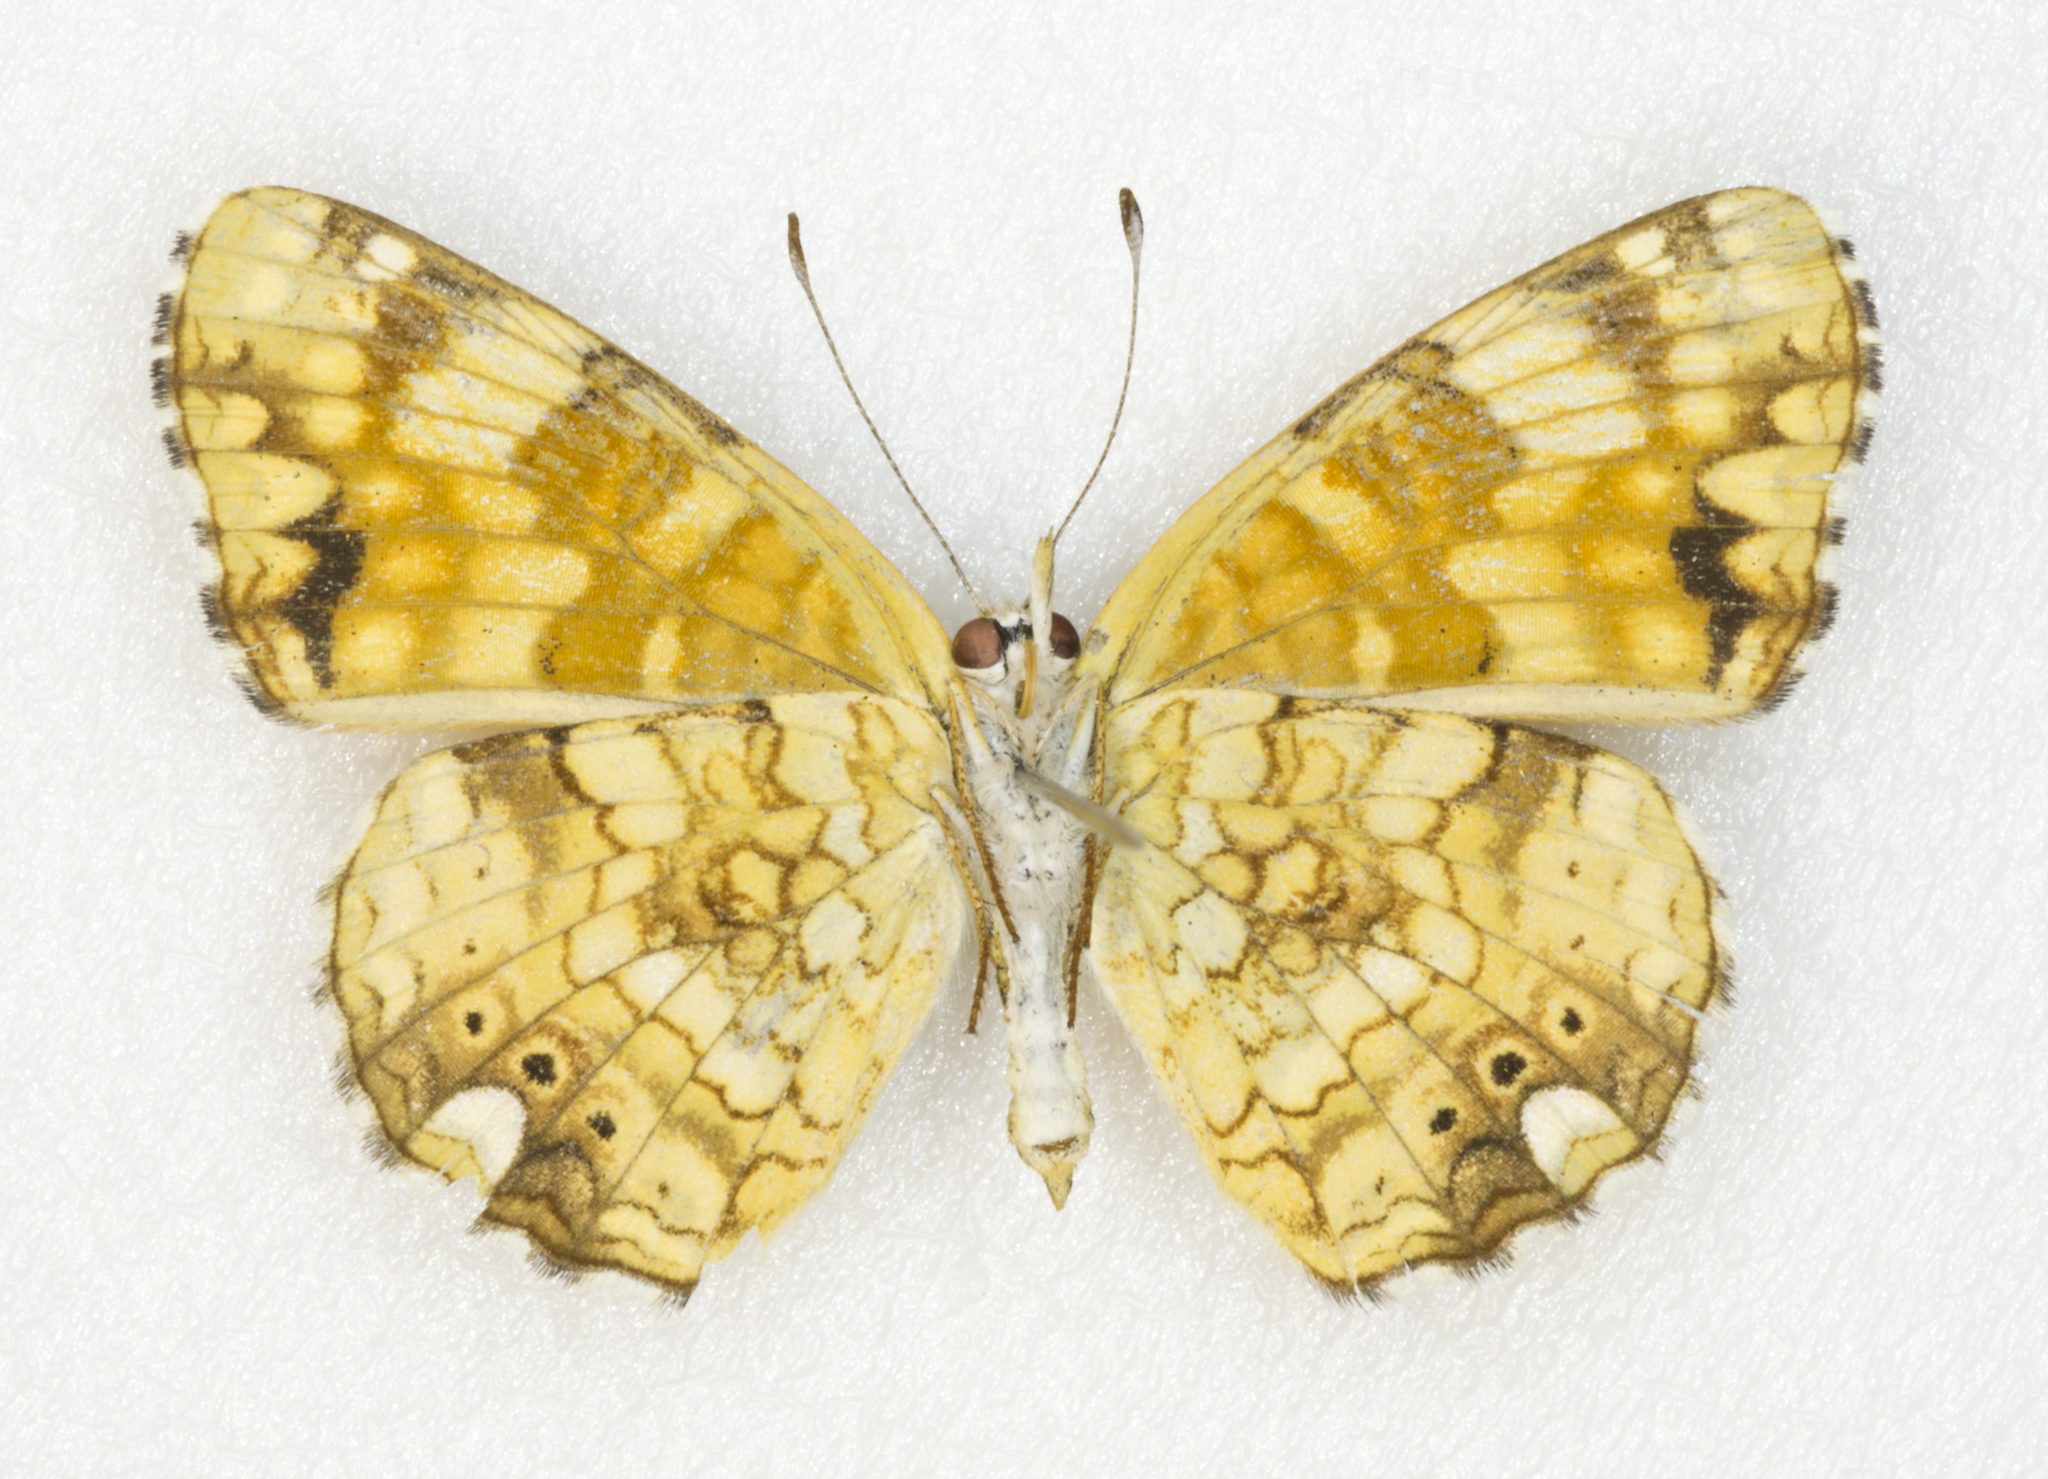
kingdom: Animalia
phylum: Arthropoda
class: Insecta
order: Lepidoptera
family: Nymphalidae
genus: Eresia
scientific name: Eresia aveyrona
